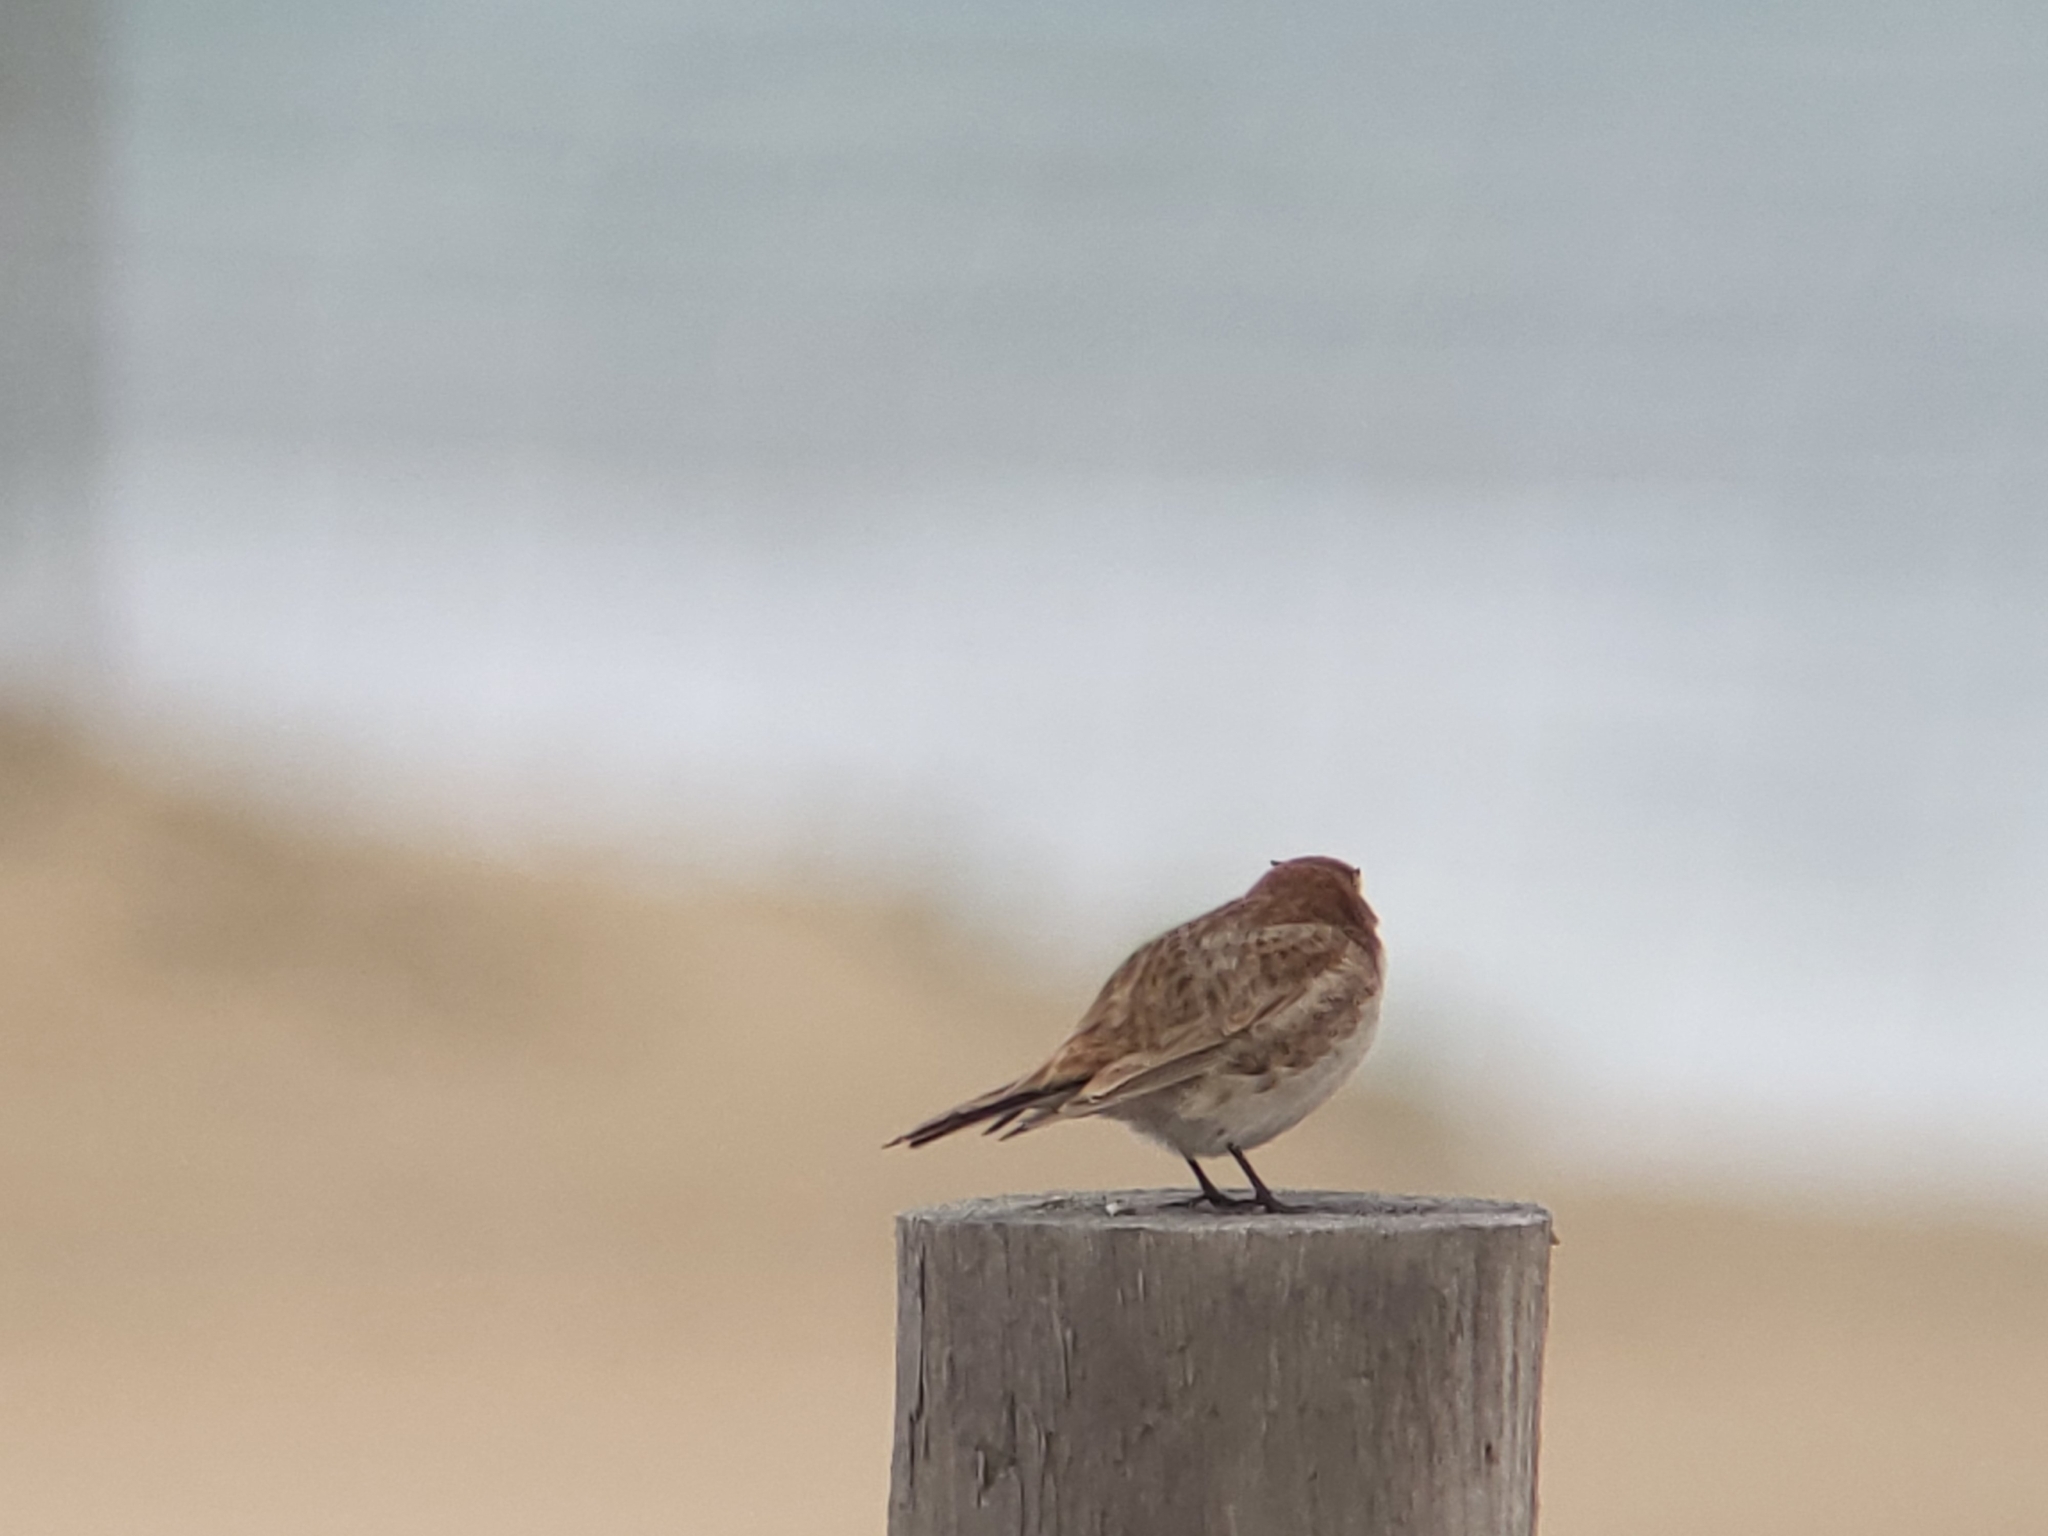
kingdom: Animalia
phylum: Chordata
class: Aves
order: Passeriformes
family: Alaudidae
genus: Eremophila
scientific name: Eremophila alpestris
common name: Horned lark
